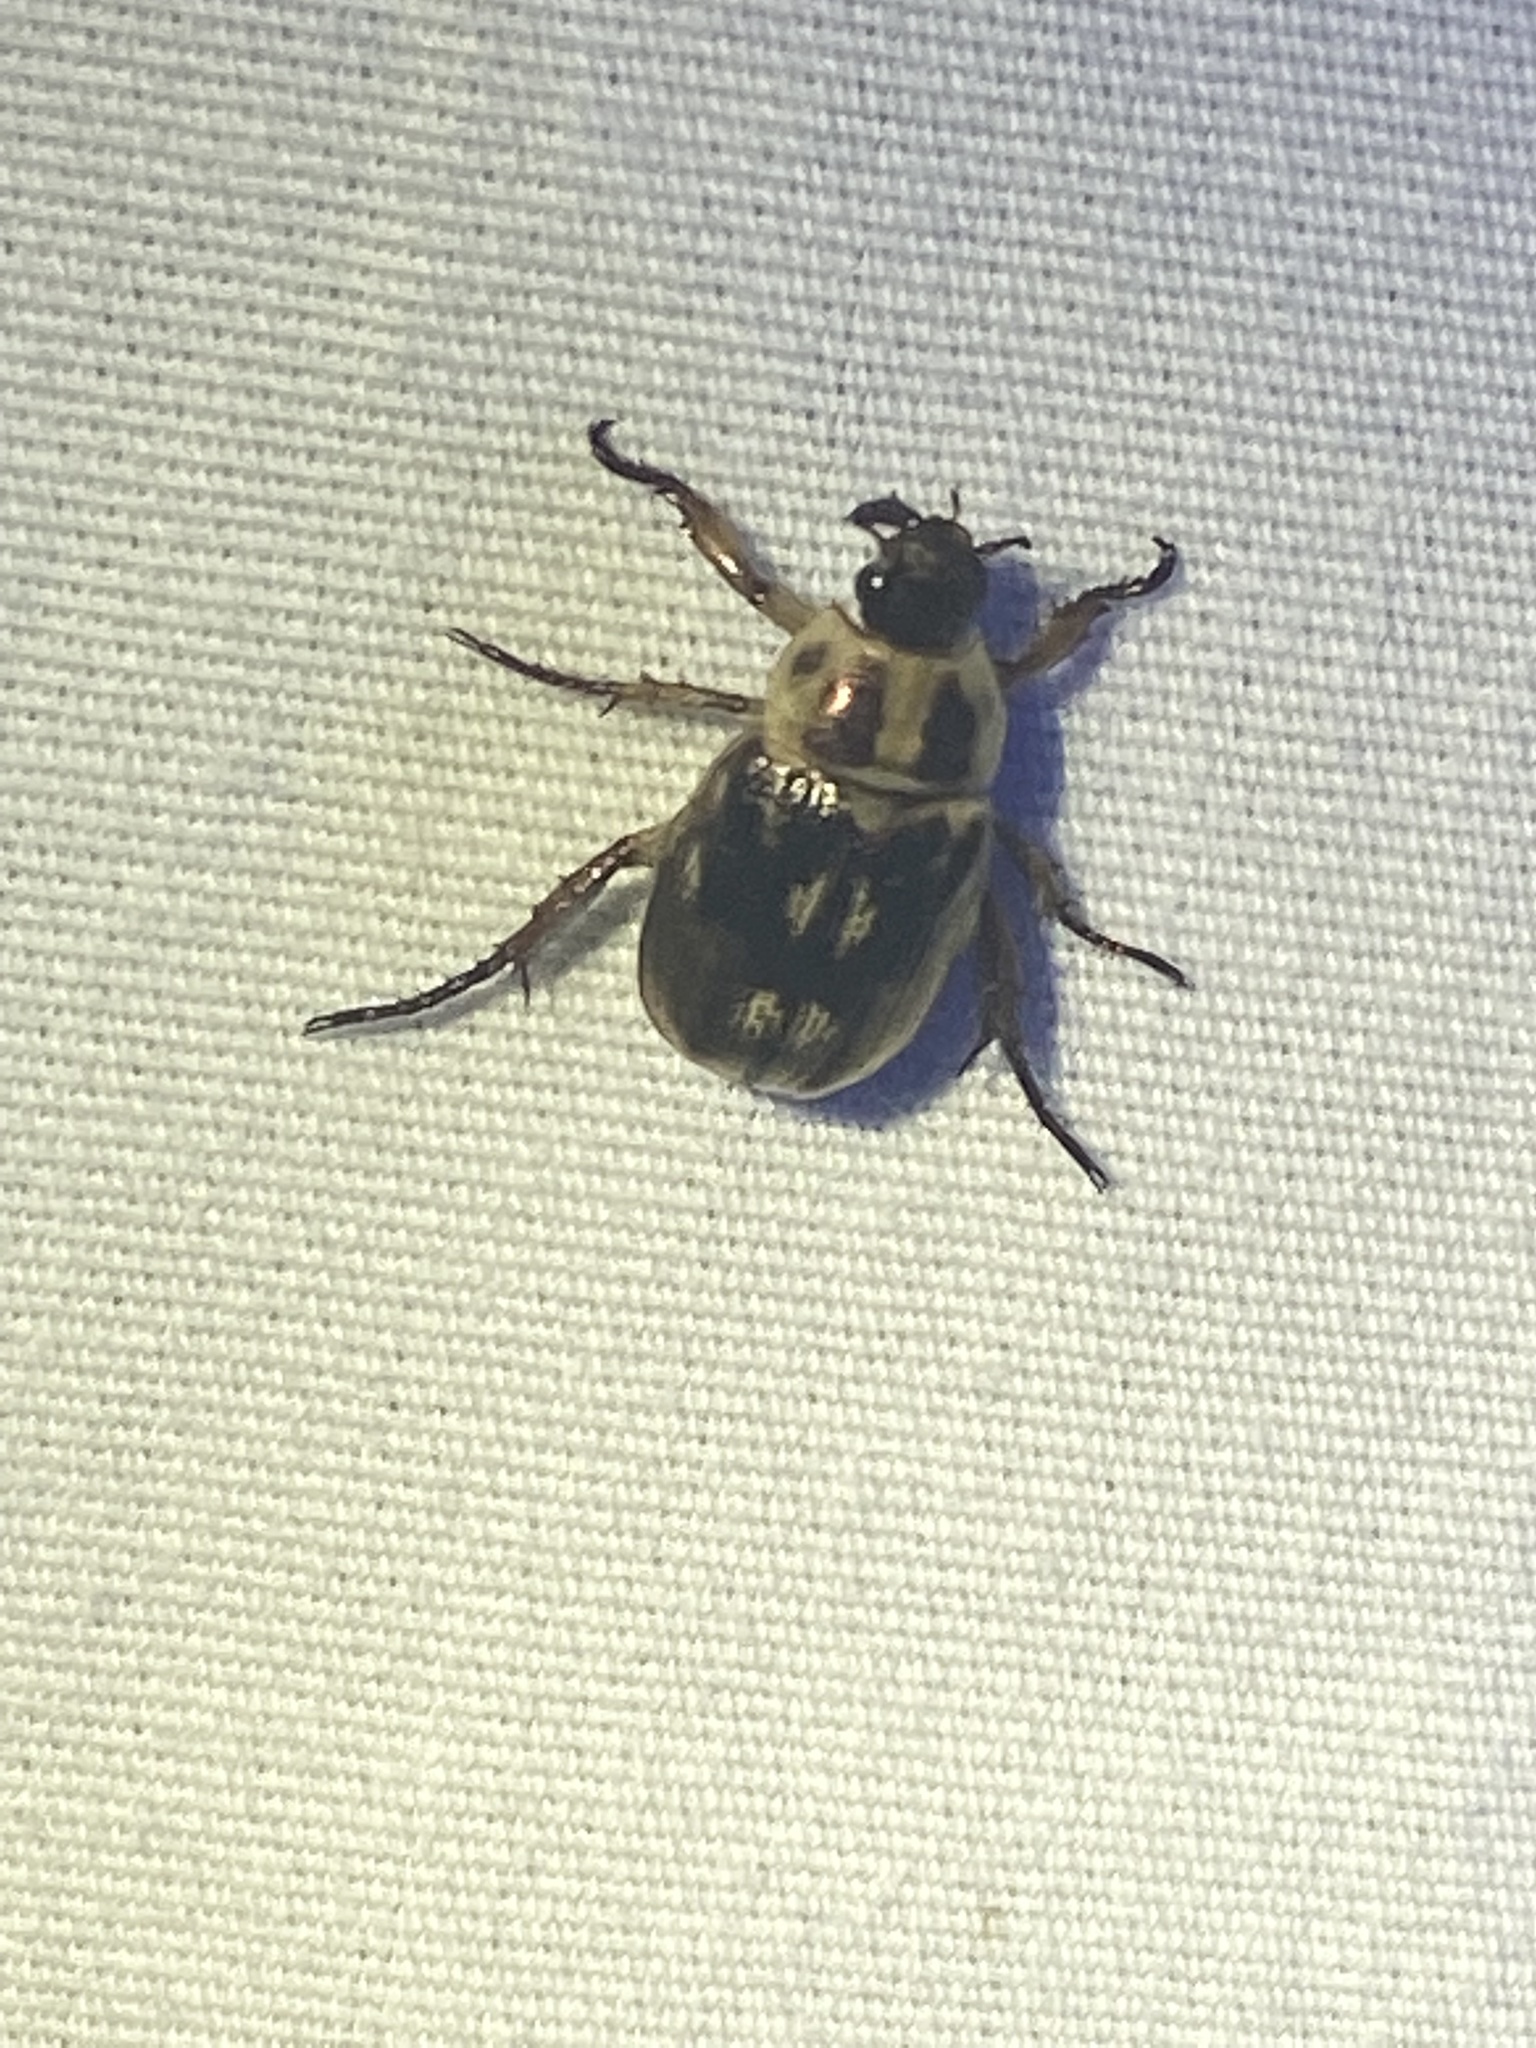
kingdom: Animalia
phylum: Arthropoda
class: Insecta
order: Coleoptera
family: Scarabaeidae
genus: Exomala
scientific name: Exomala orientalis
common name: Oriental beetle
